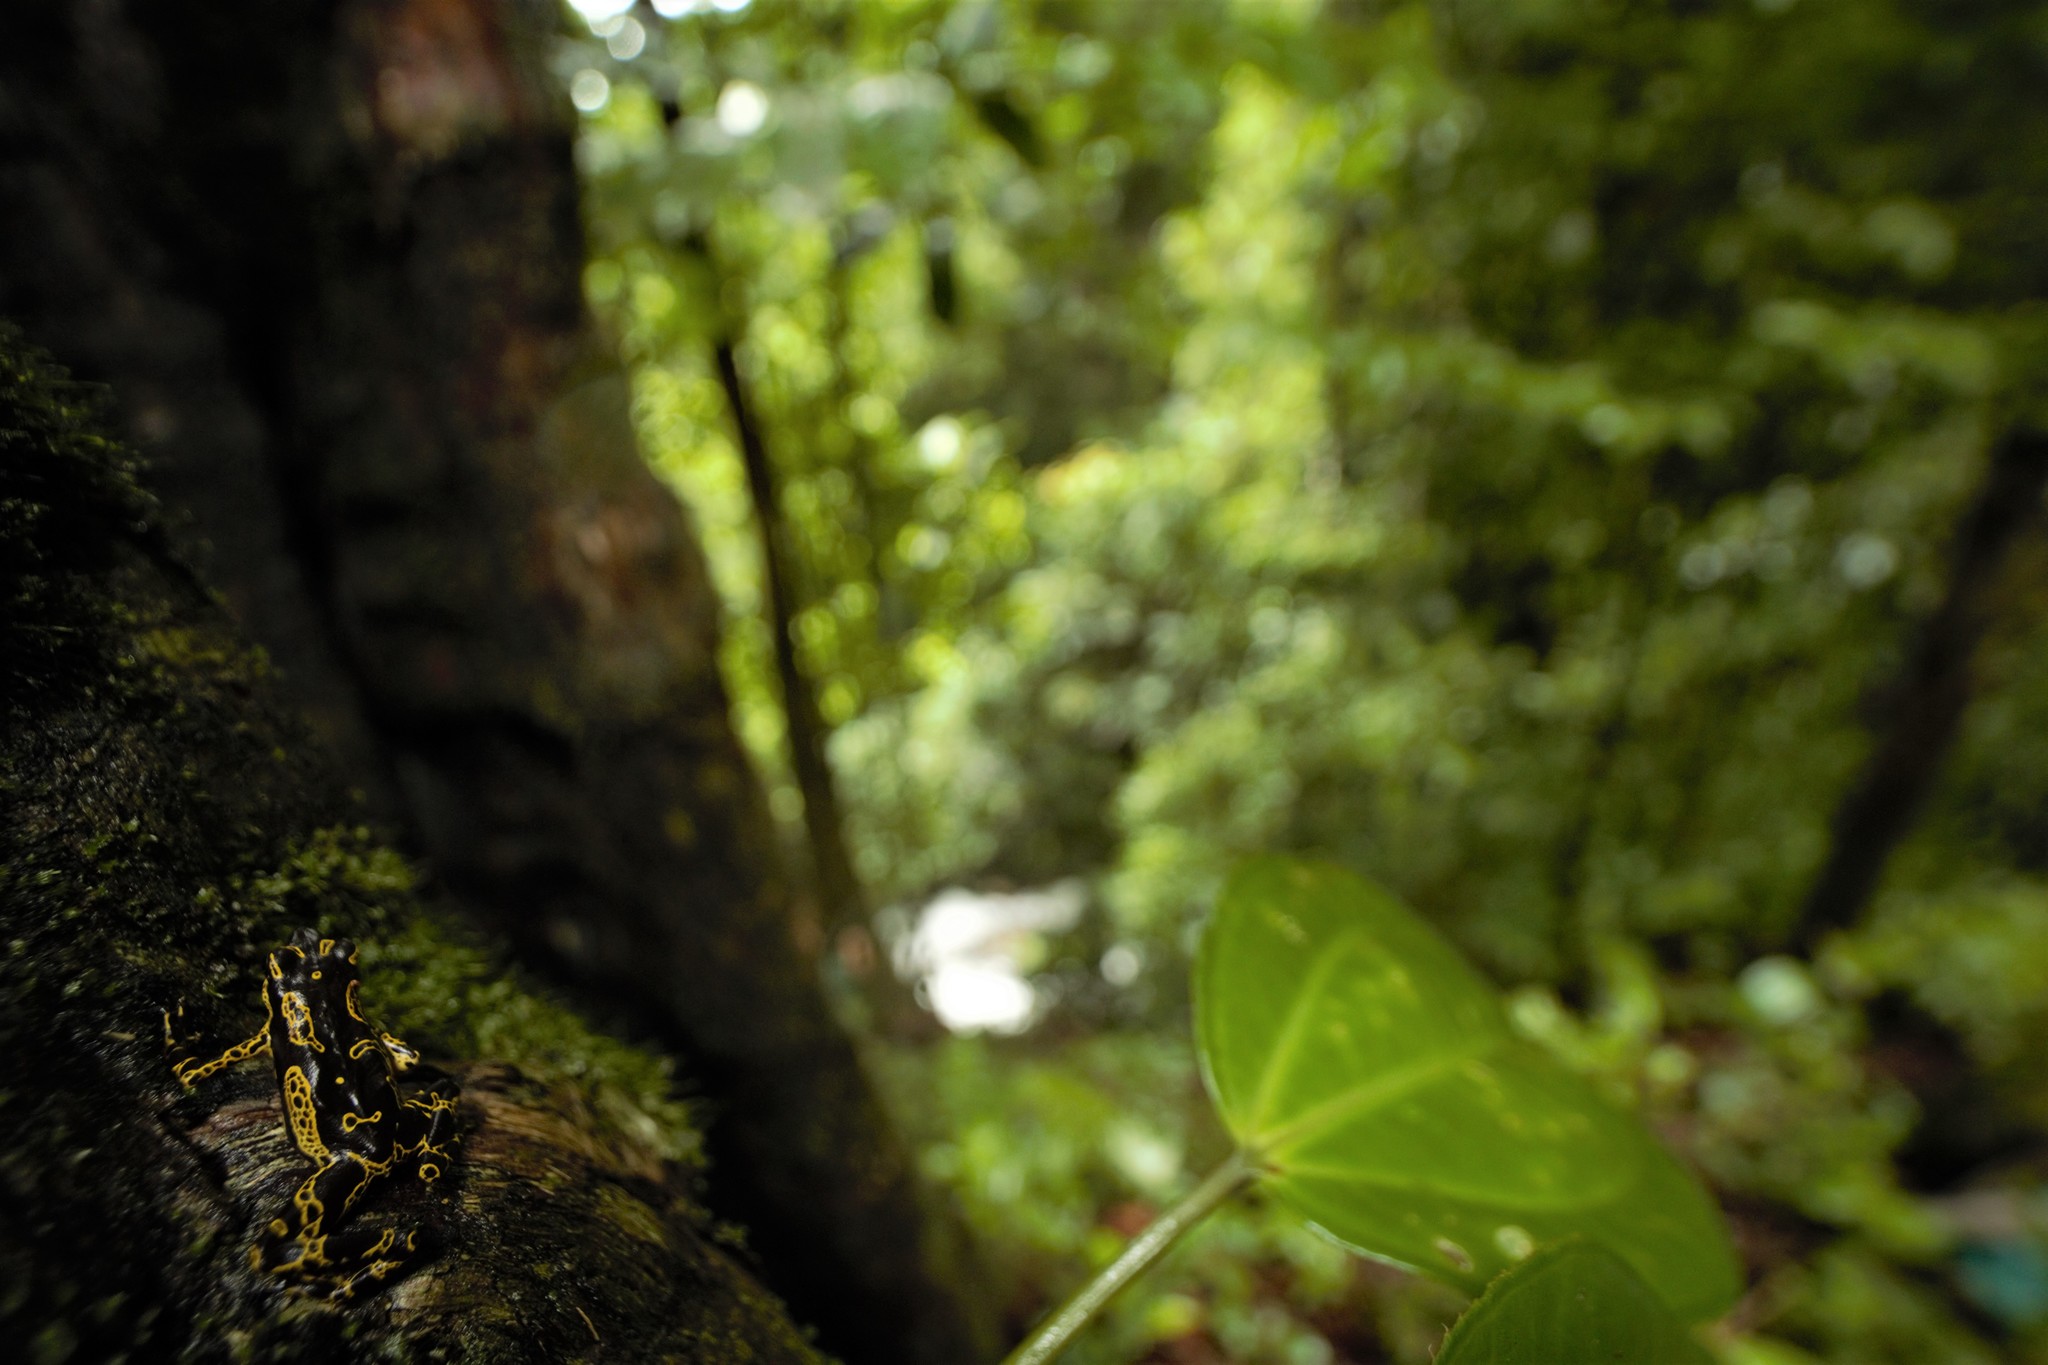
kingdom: Animalia
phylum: Chordata
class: Amphibia
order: Anura
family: Bufonidae
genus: Atelopus
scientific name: Atelopus hoogmoedi
